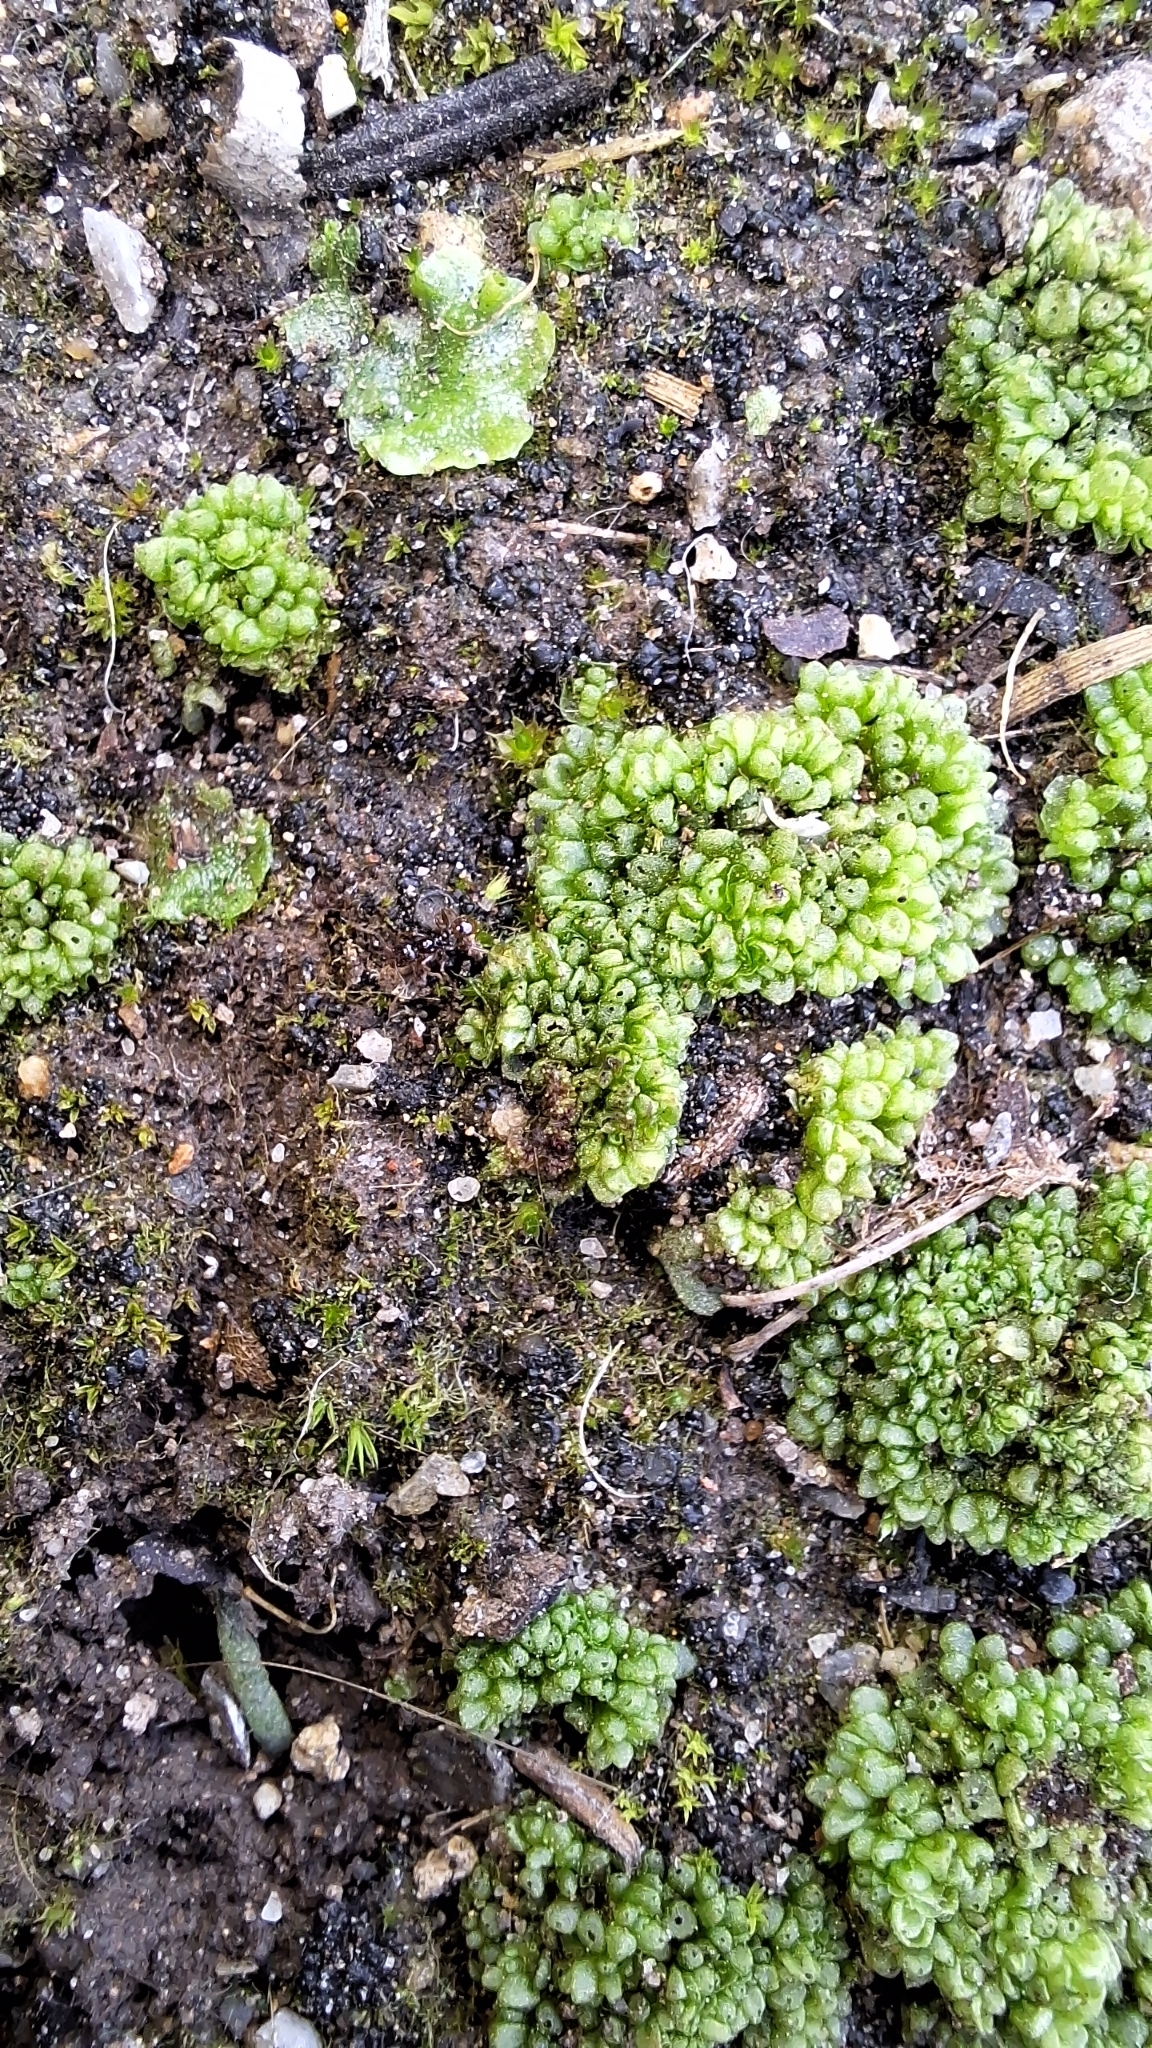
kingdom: Plantae
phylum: Marchantiophyta
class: Marchantiopsida
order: Sphaerocarpales
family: Sphaerocarpaceae
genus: Sphaerocarpos
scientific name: Sphaerocarpos texanus
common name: Texas balloonwort
